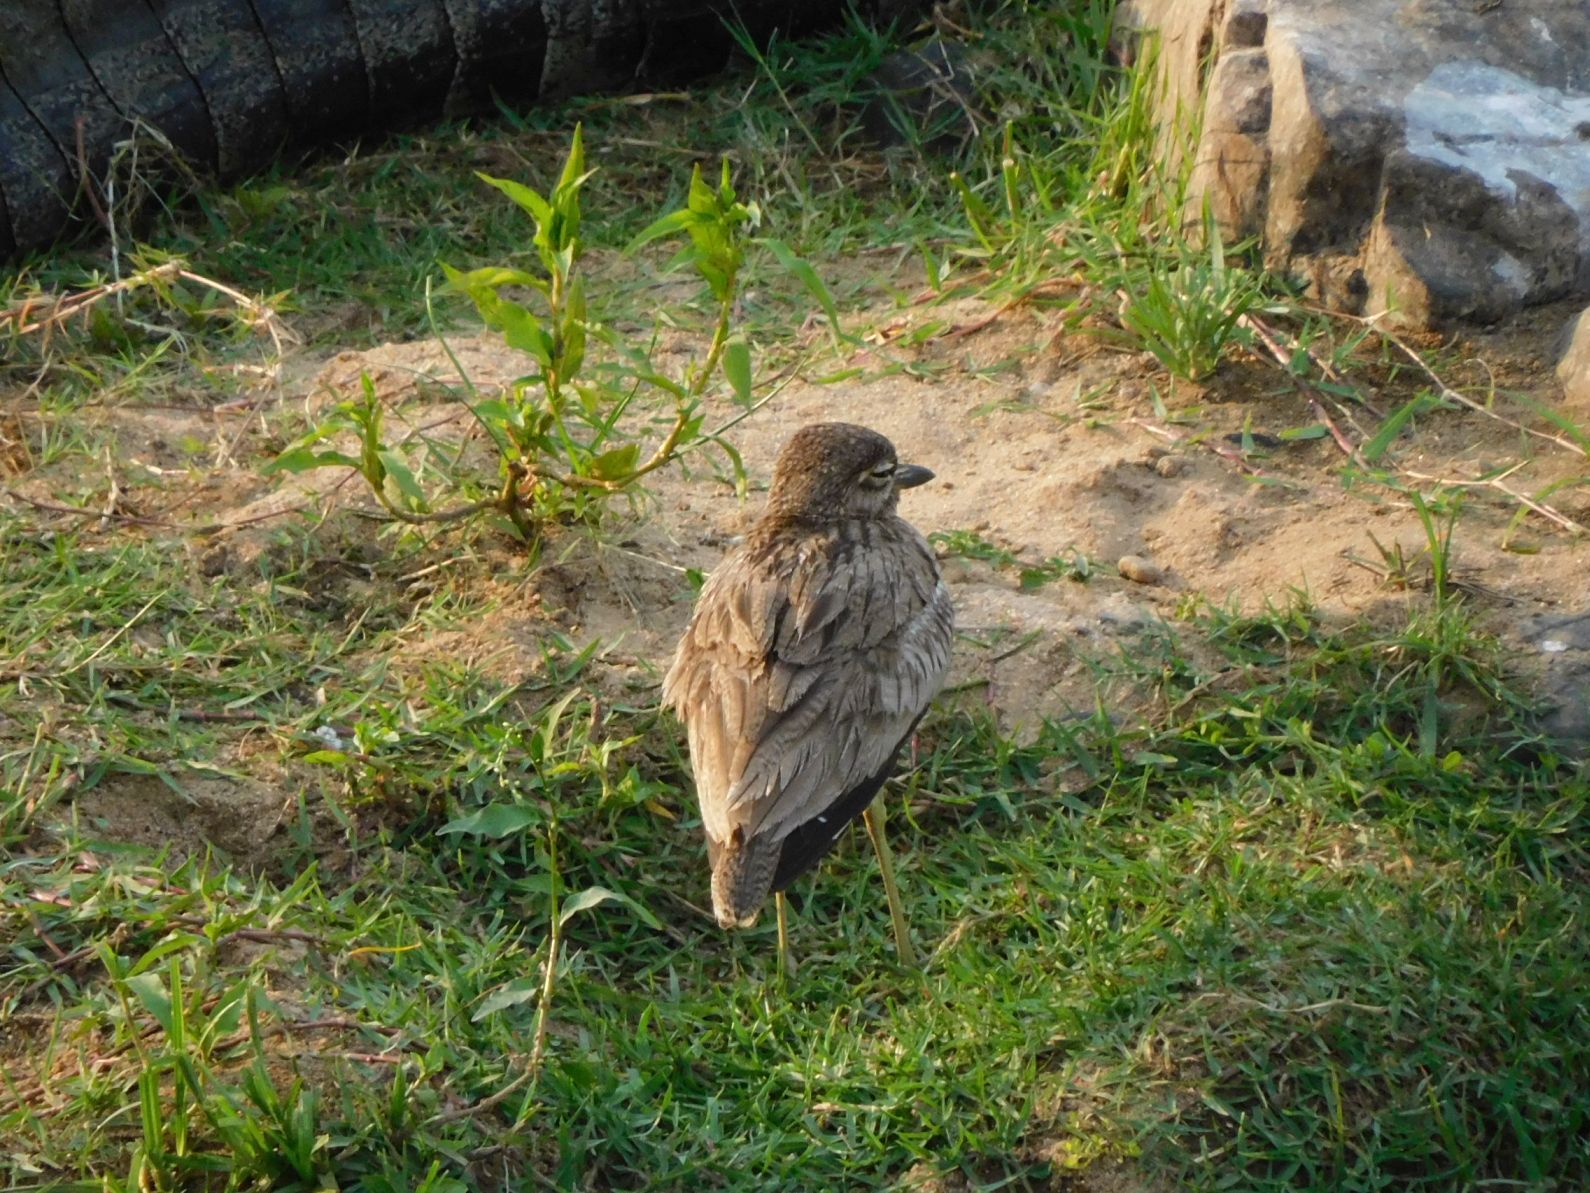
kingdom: Animalia
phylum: Chordata
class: Aves
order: Charadriiformes
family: Burhinidae
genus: Burhinus
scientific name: Burhinus vermiculatus
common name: Water thick-knee
